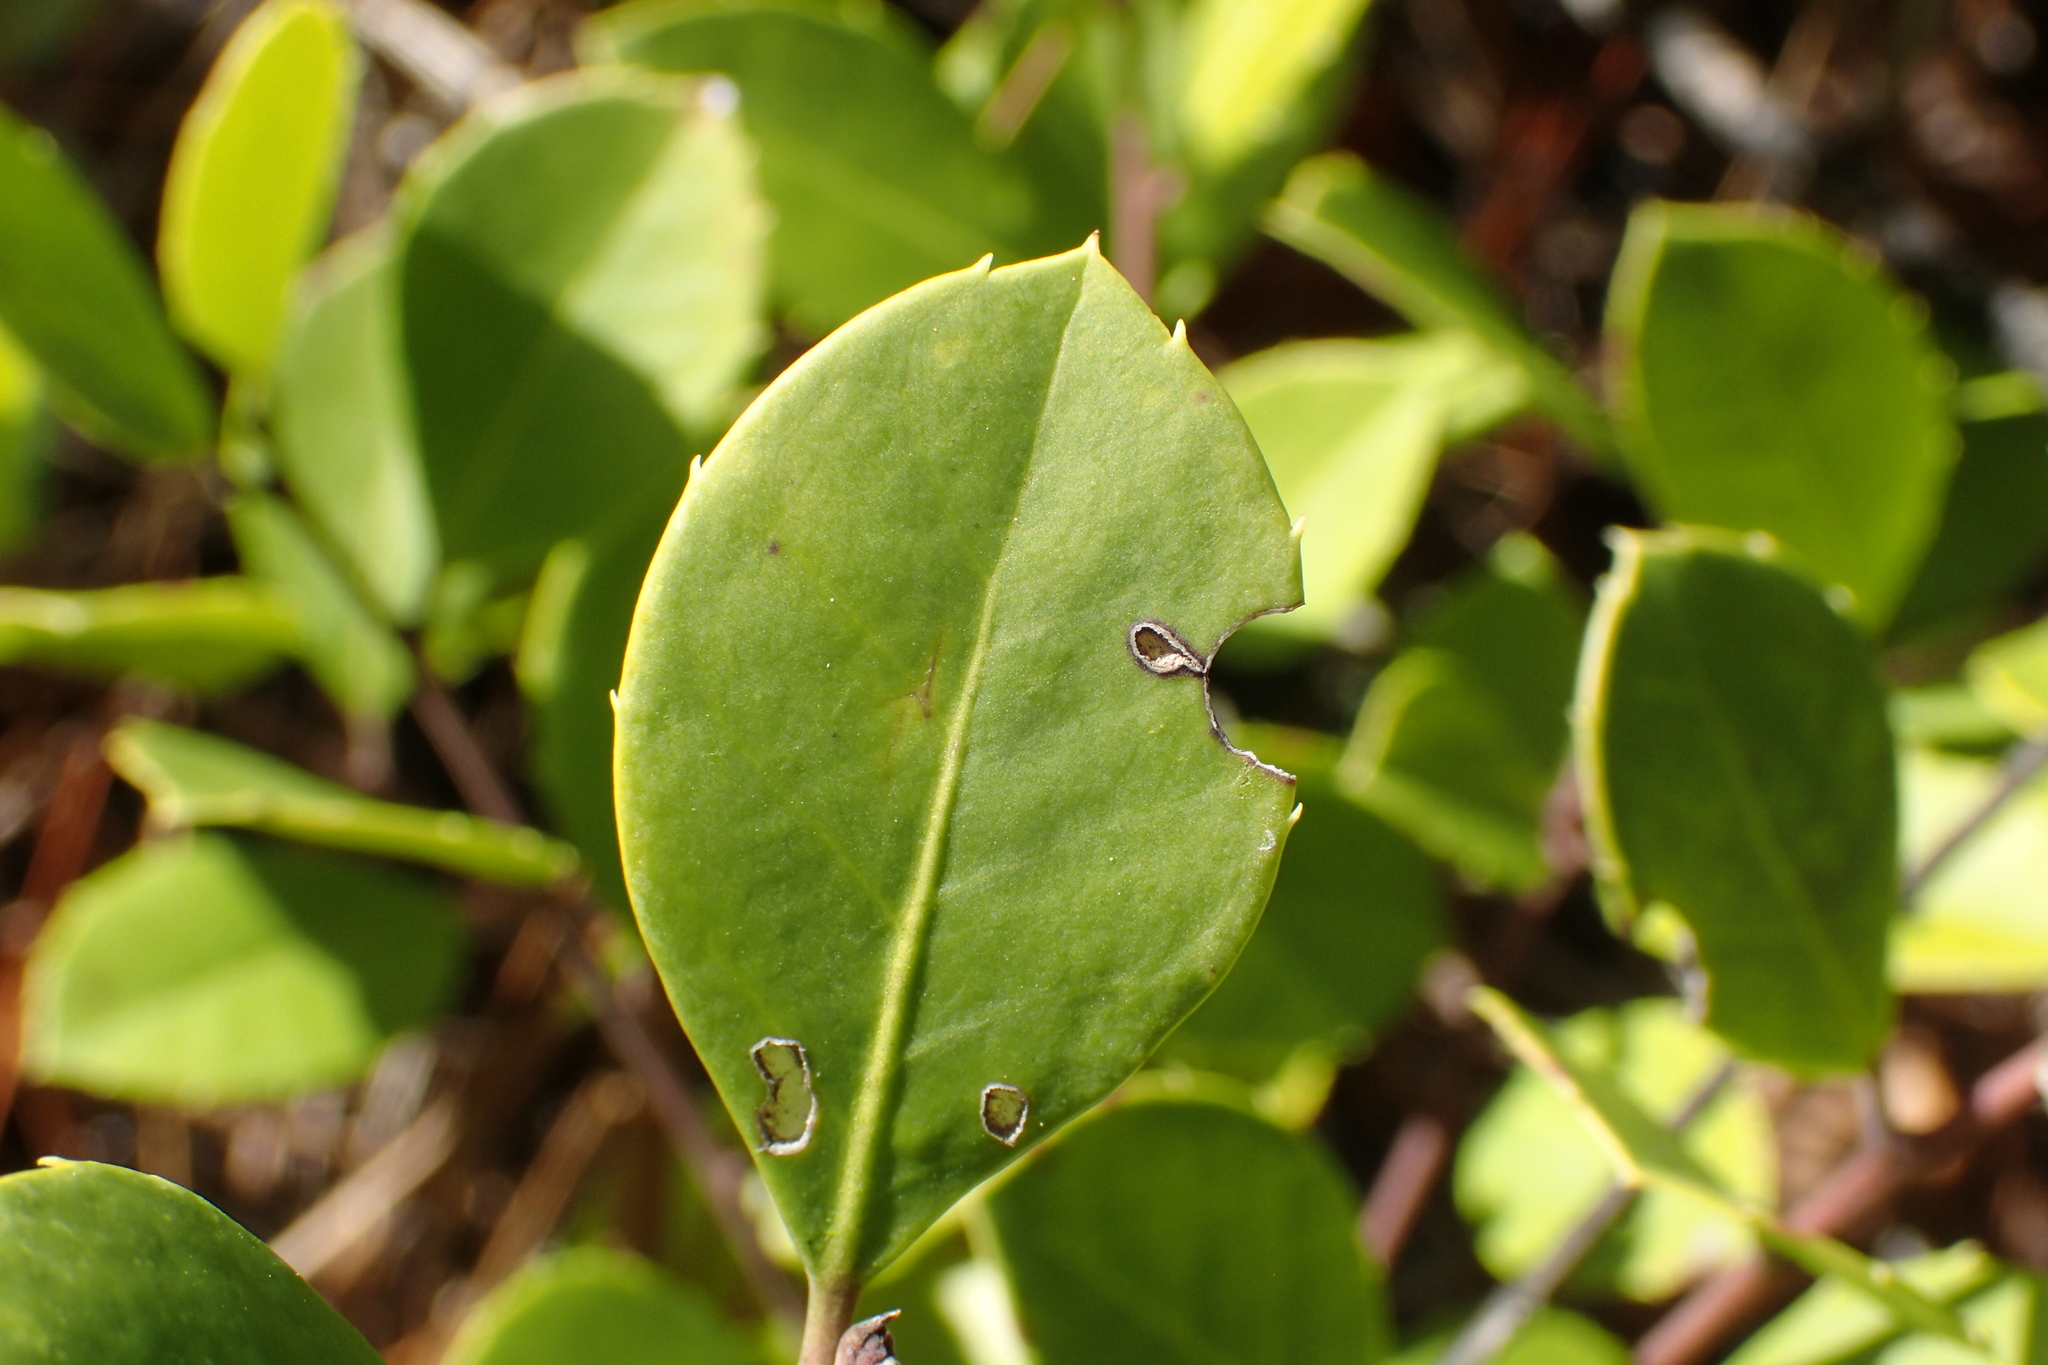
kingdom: Plantae
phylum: Tracheophyta
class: Magnoliopsida
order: Aquifoliales
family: Aquifoliaceae
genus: Ilex
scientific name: Ilex coriacea
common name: Sweet gallberry
